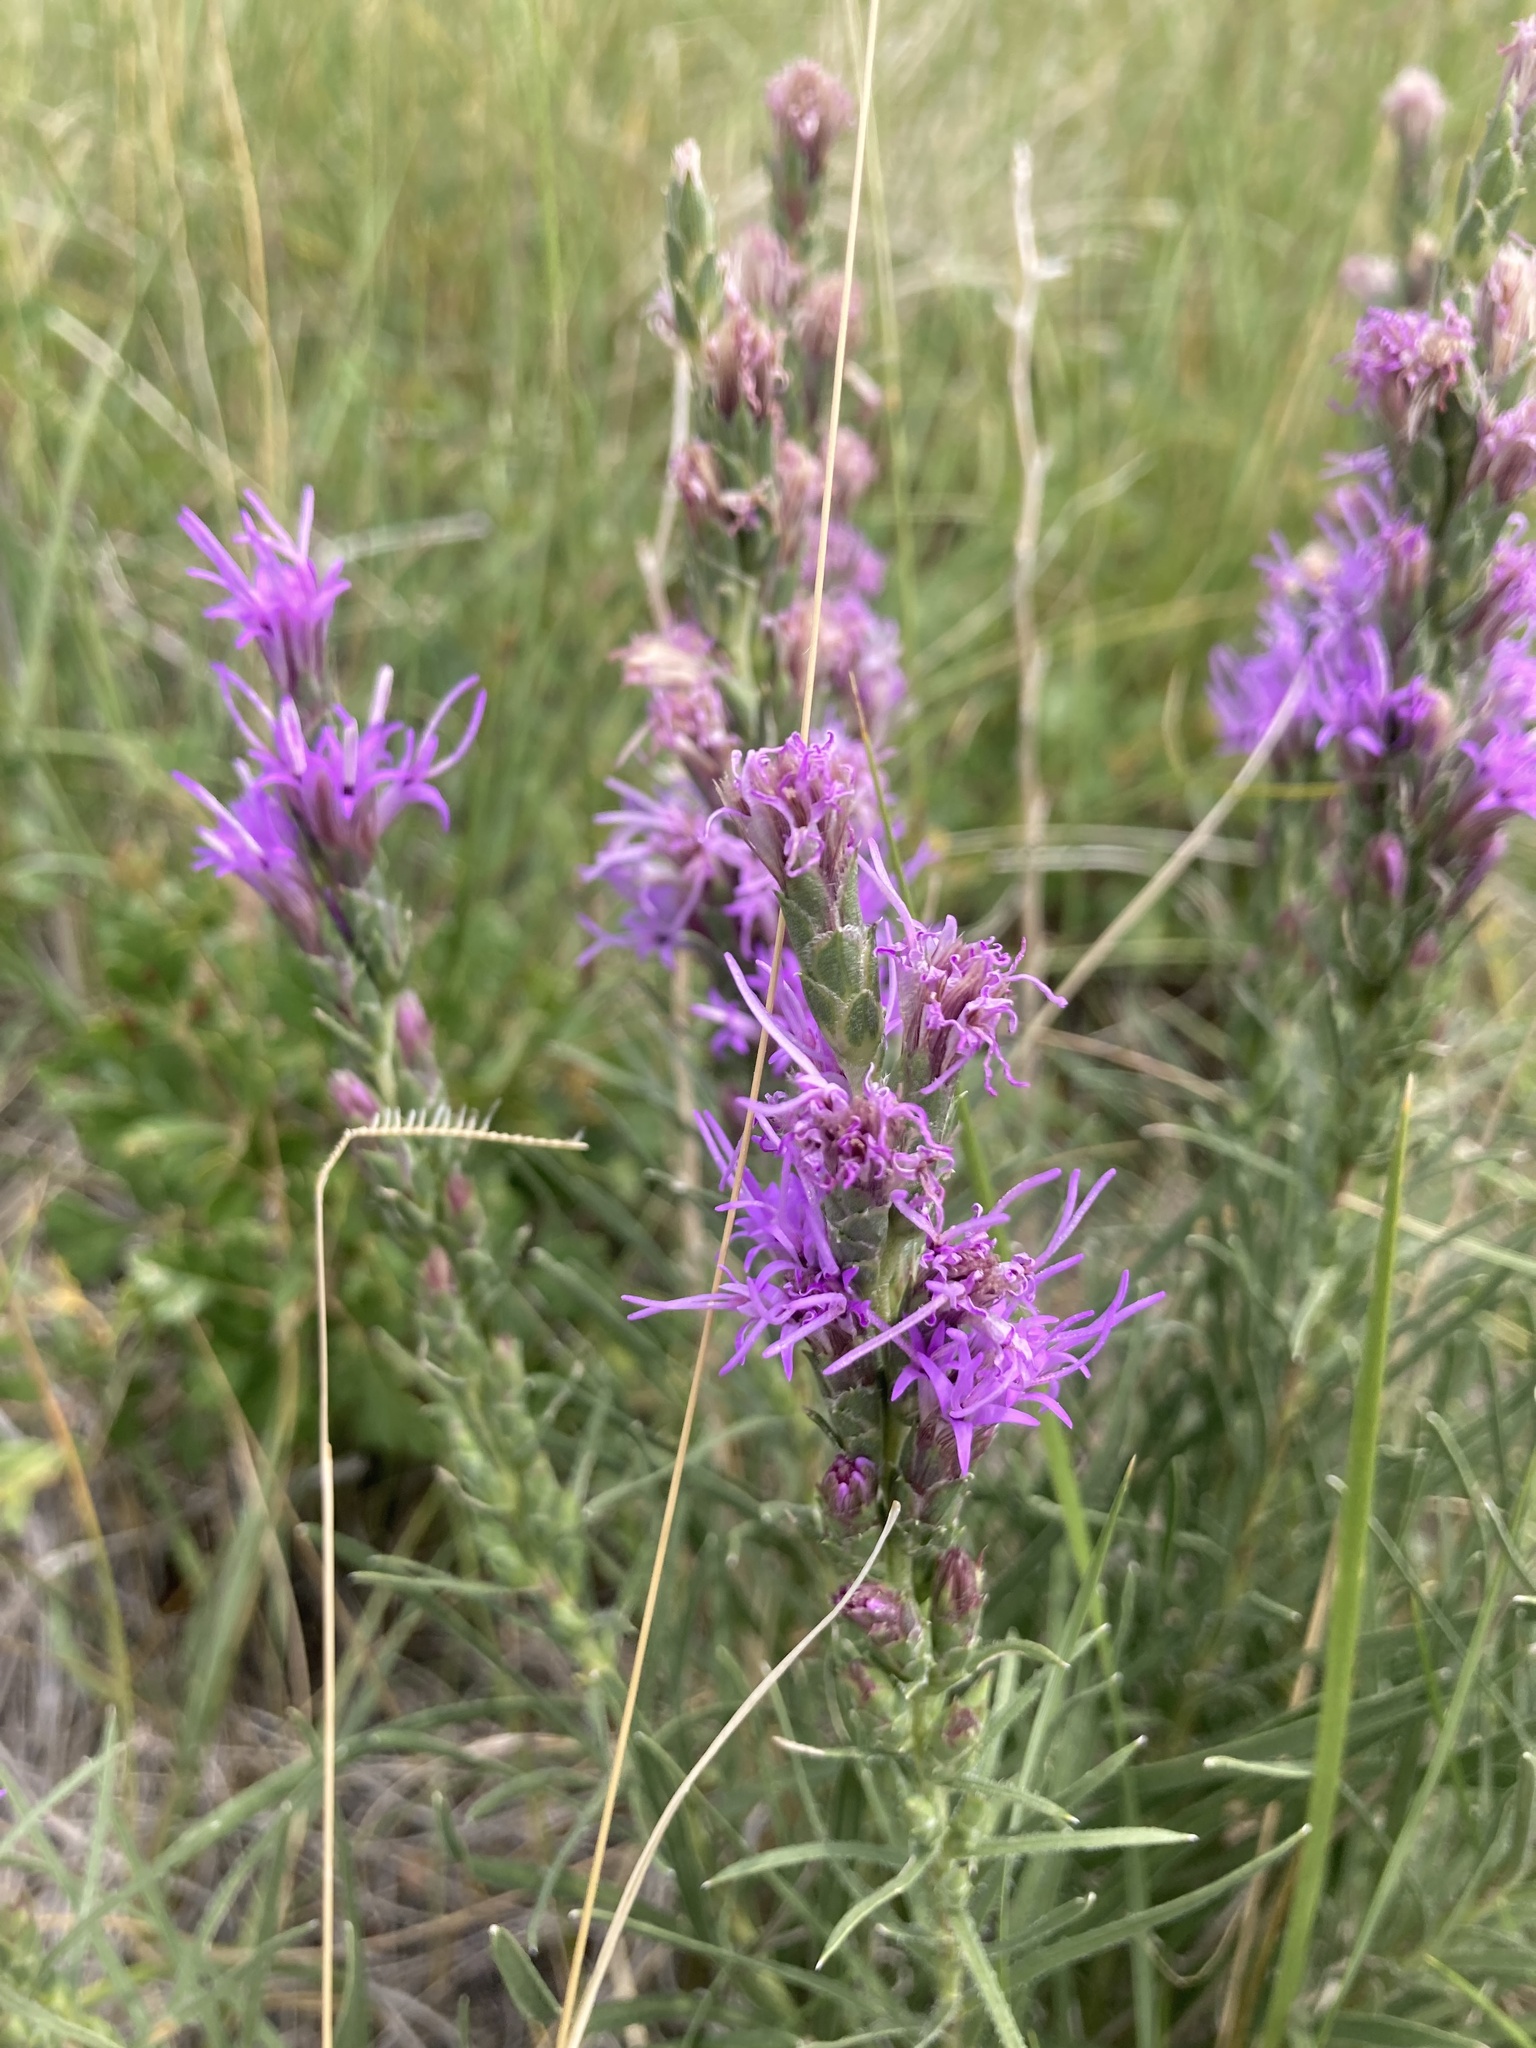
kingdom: Plantae
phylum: Tracheophyta
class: Magnoliopsida
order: Asterales
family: Asteraceae
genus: Liatris
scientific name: Liatris punctata
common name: Dotted gayfeather
